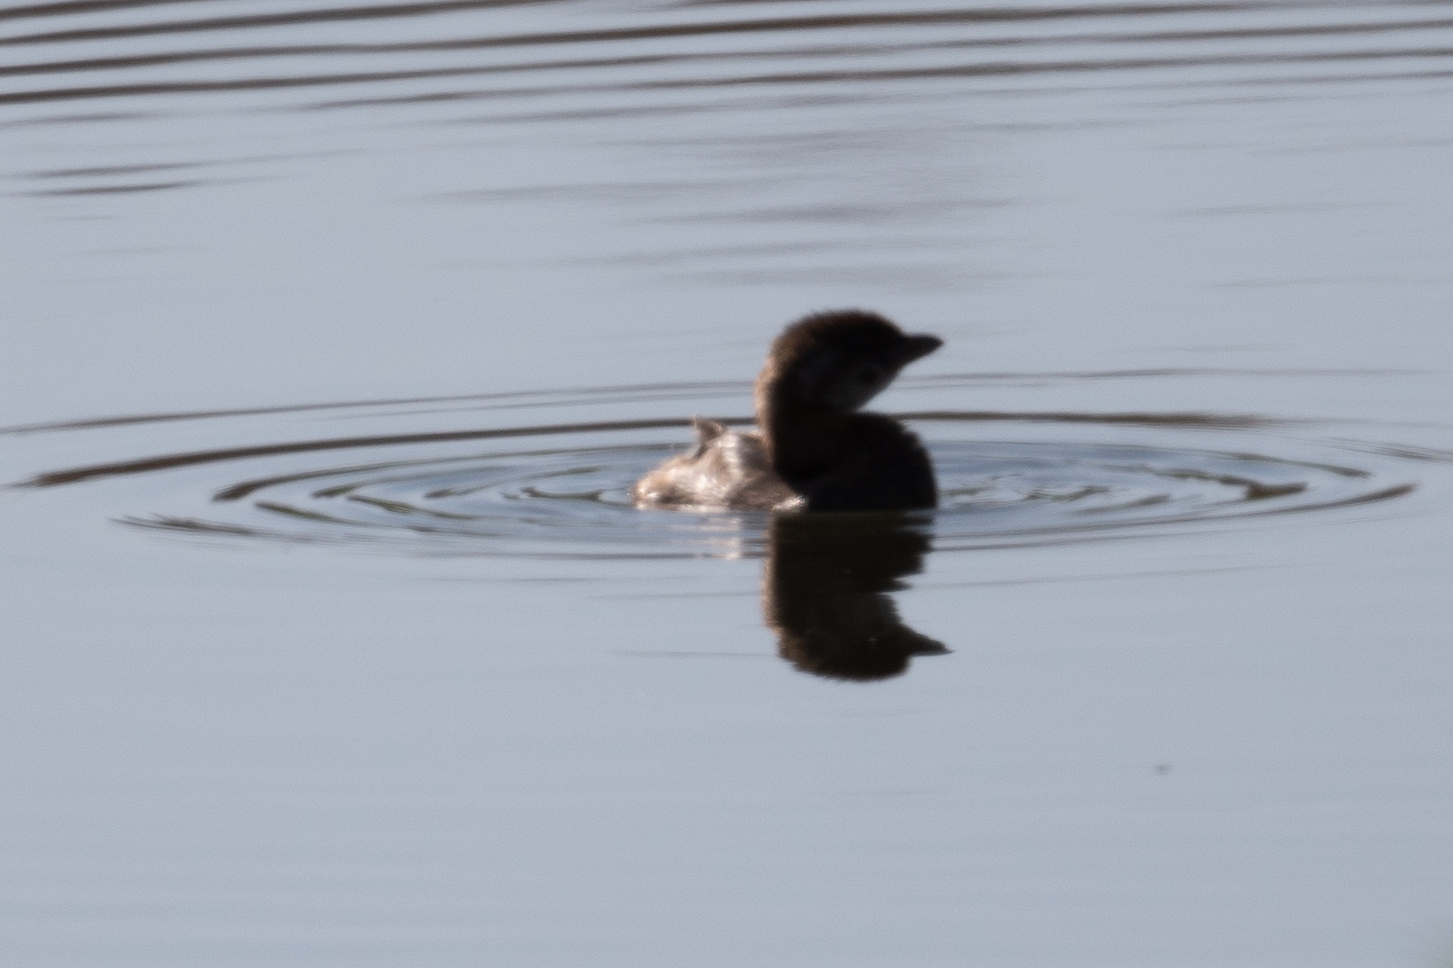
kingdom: Animalia
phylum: Chordata
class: Aves
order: Podicipediformes
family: Podicipedidae
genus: Podilymbus
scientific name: Podilymbus podiceps
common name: Pied-billed grebe
